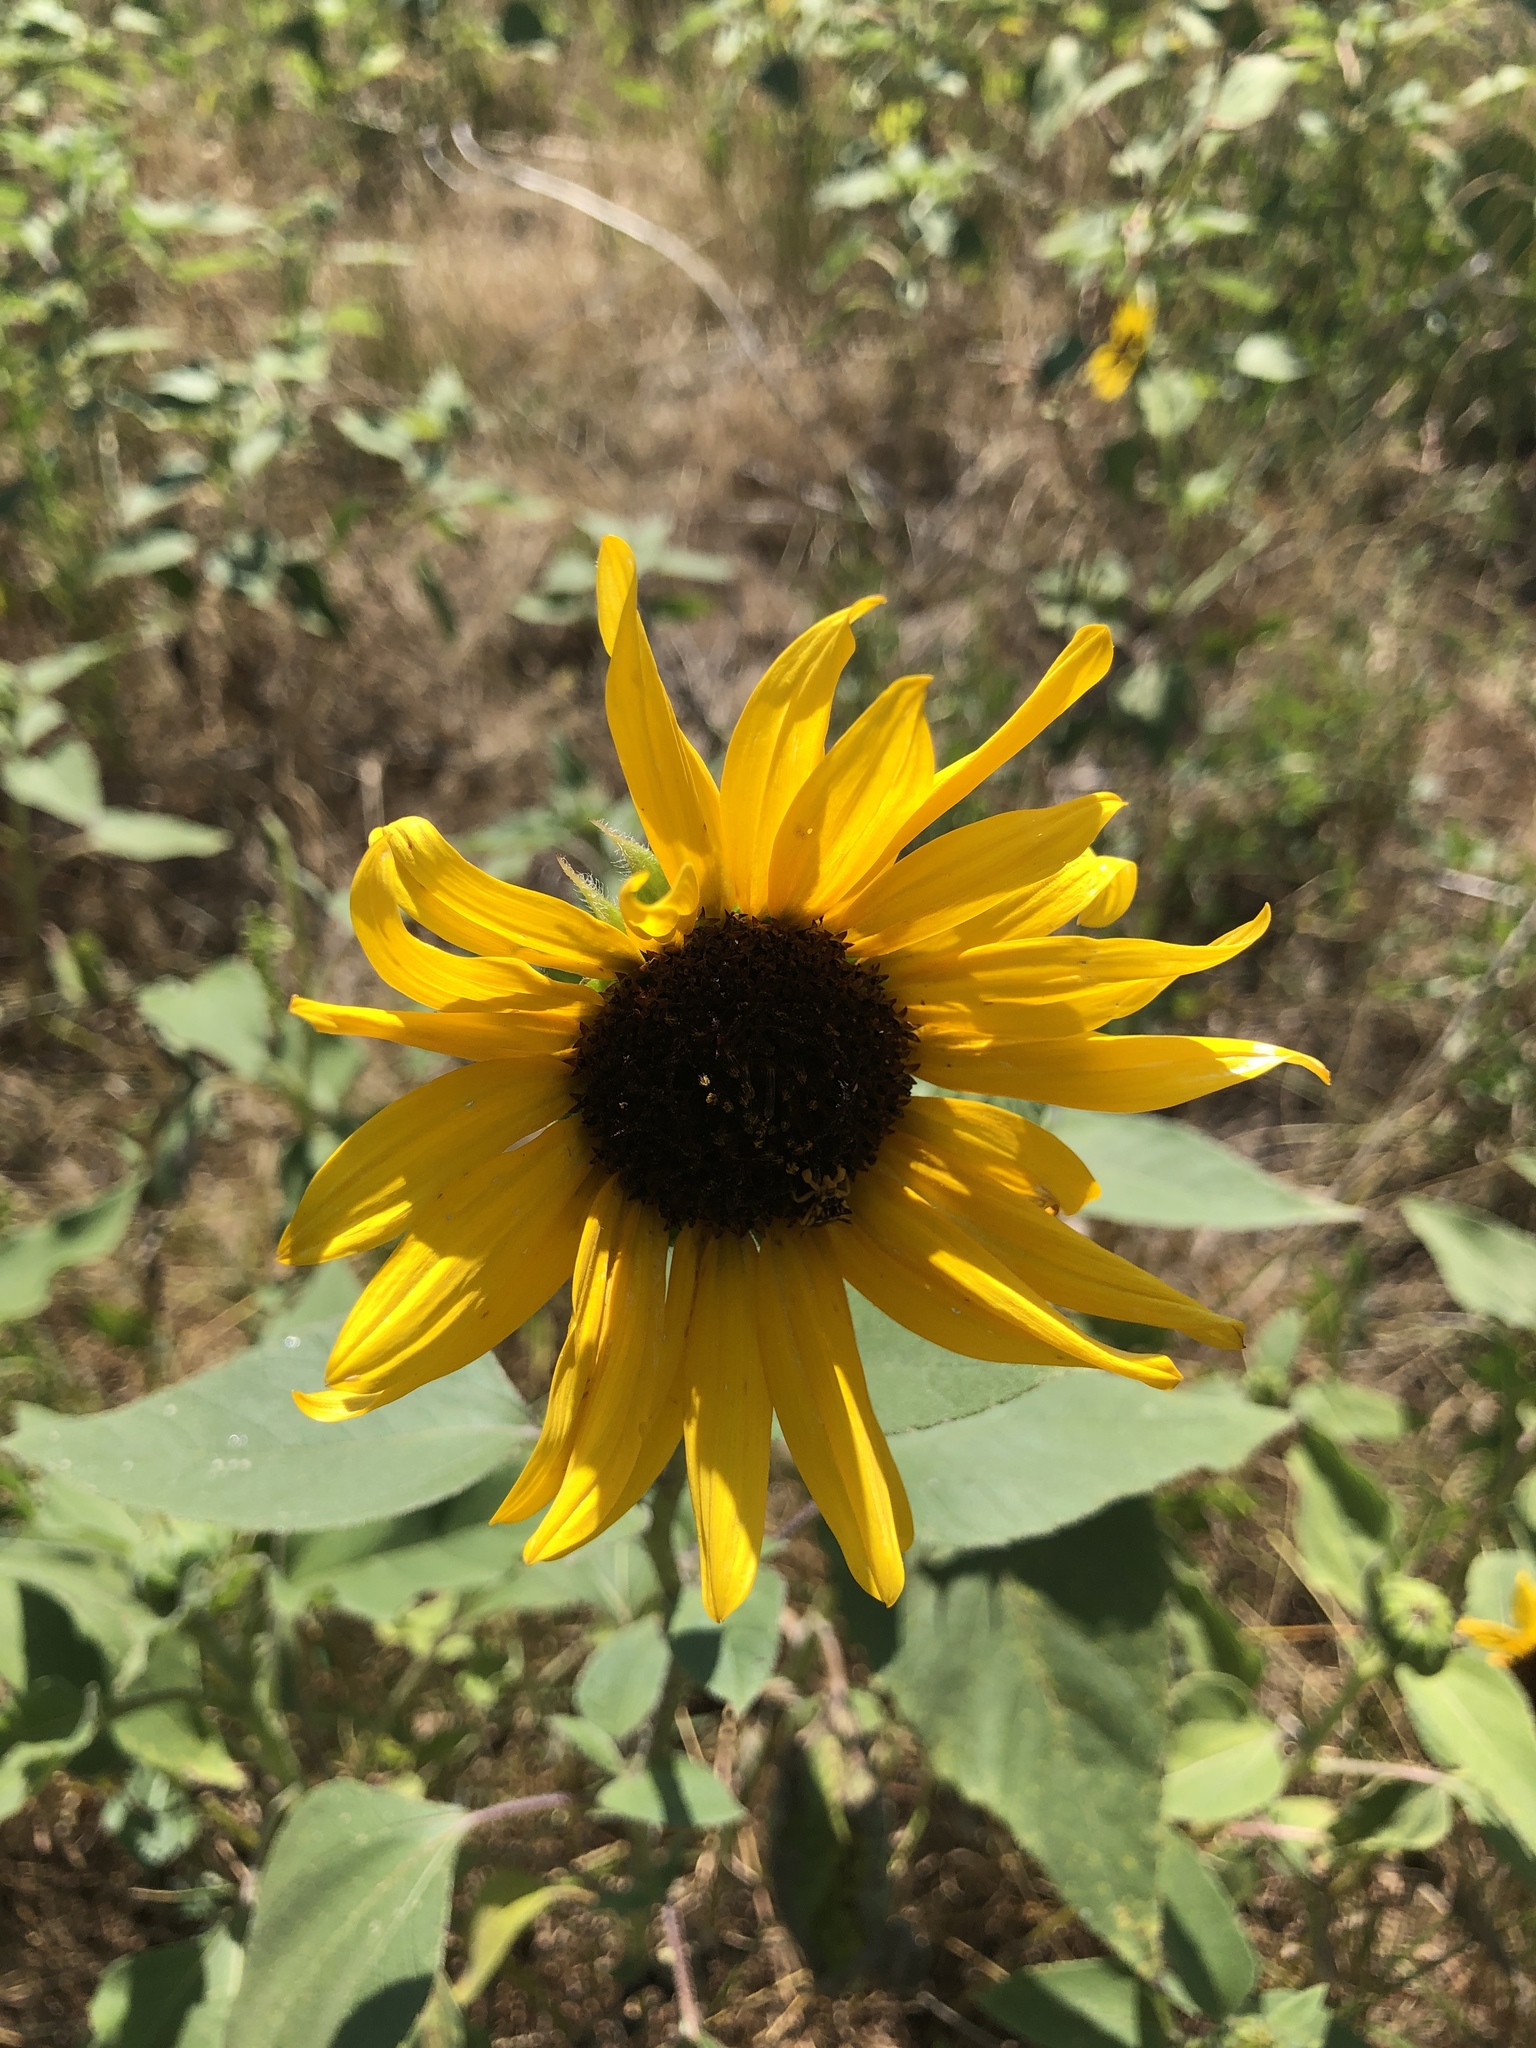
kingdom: Plantae
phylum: Tracheophyta
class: Magnoliopsida
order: Asterales
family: Asteraceae
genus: Helianthus
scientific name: Helianthus annuus
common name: Sunflower
